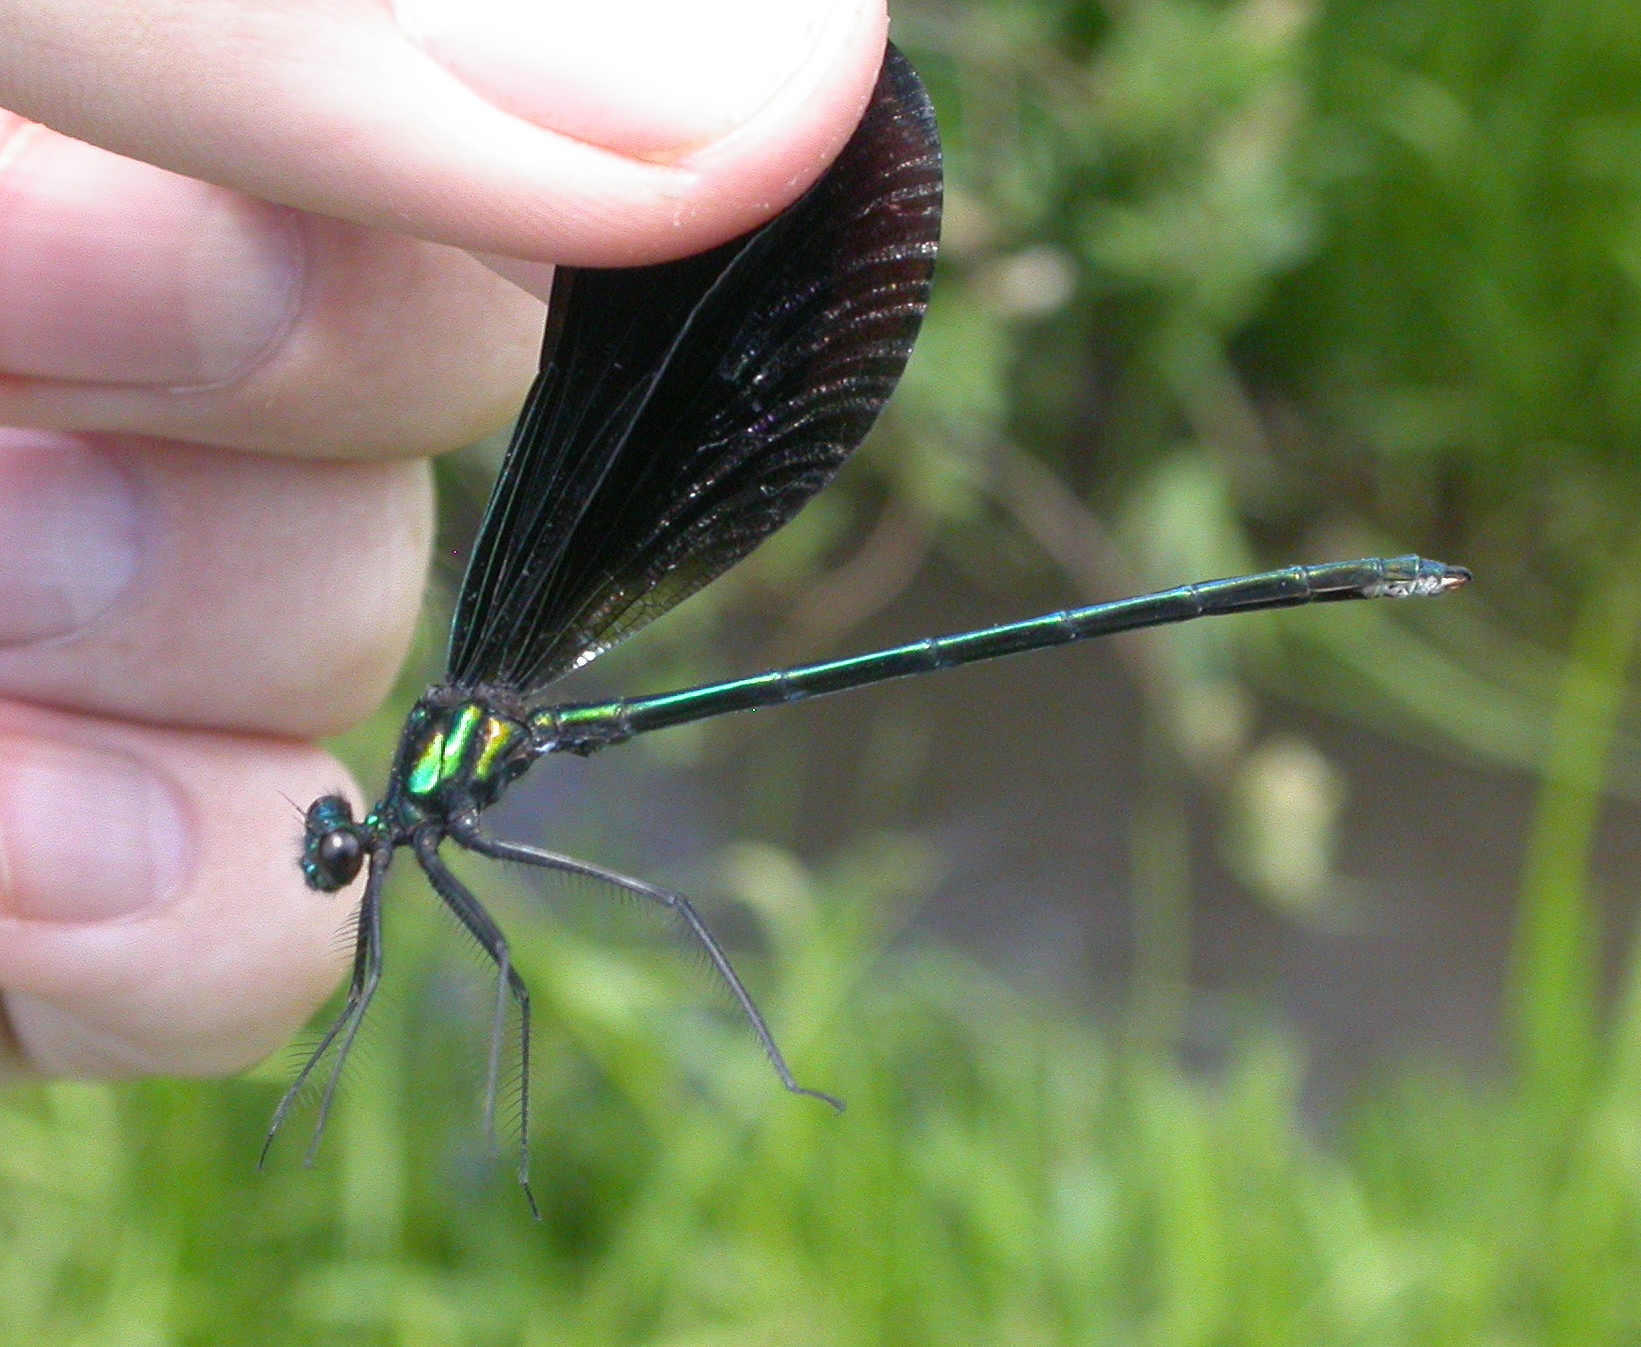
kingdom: Animalia
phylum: Arthropoda
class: Insecta
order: Odonata
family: Calopterygidae
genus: Calopteryx
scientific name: Calopteryx maculata
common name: Ebony jewelwing
